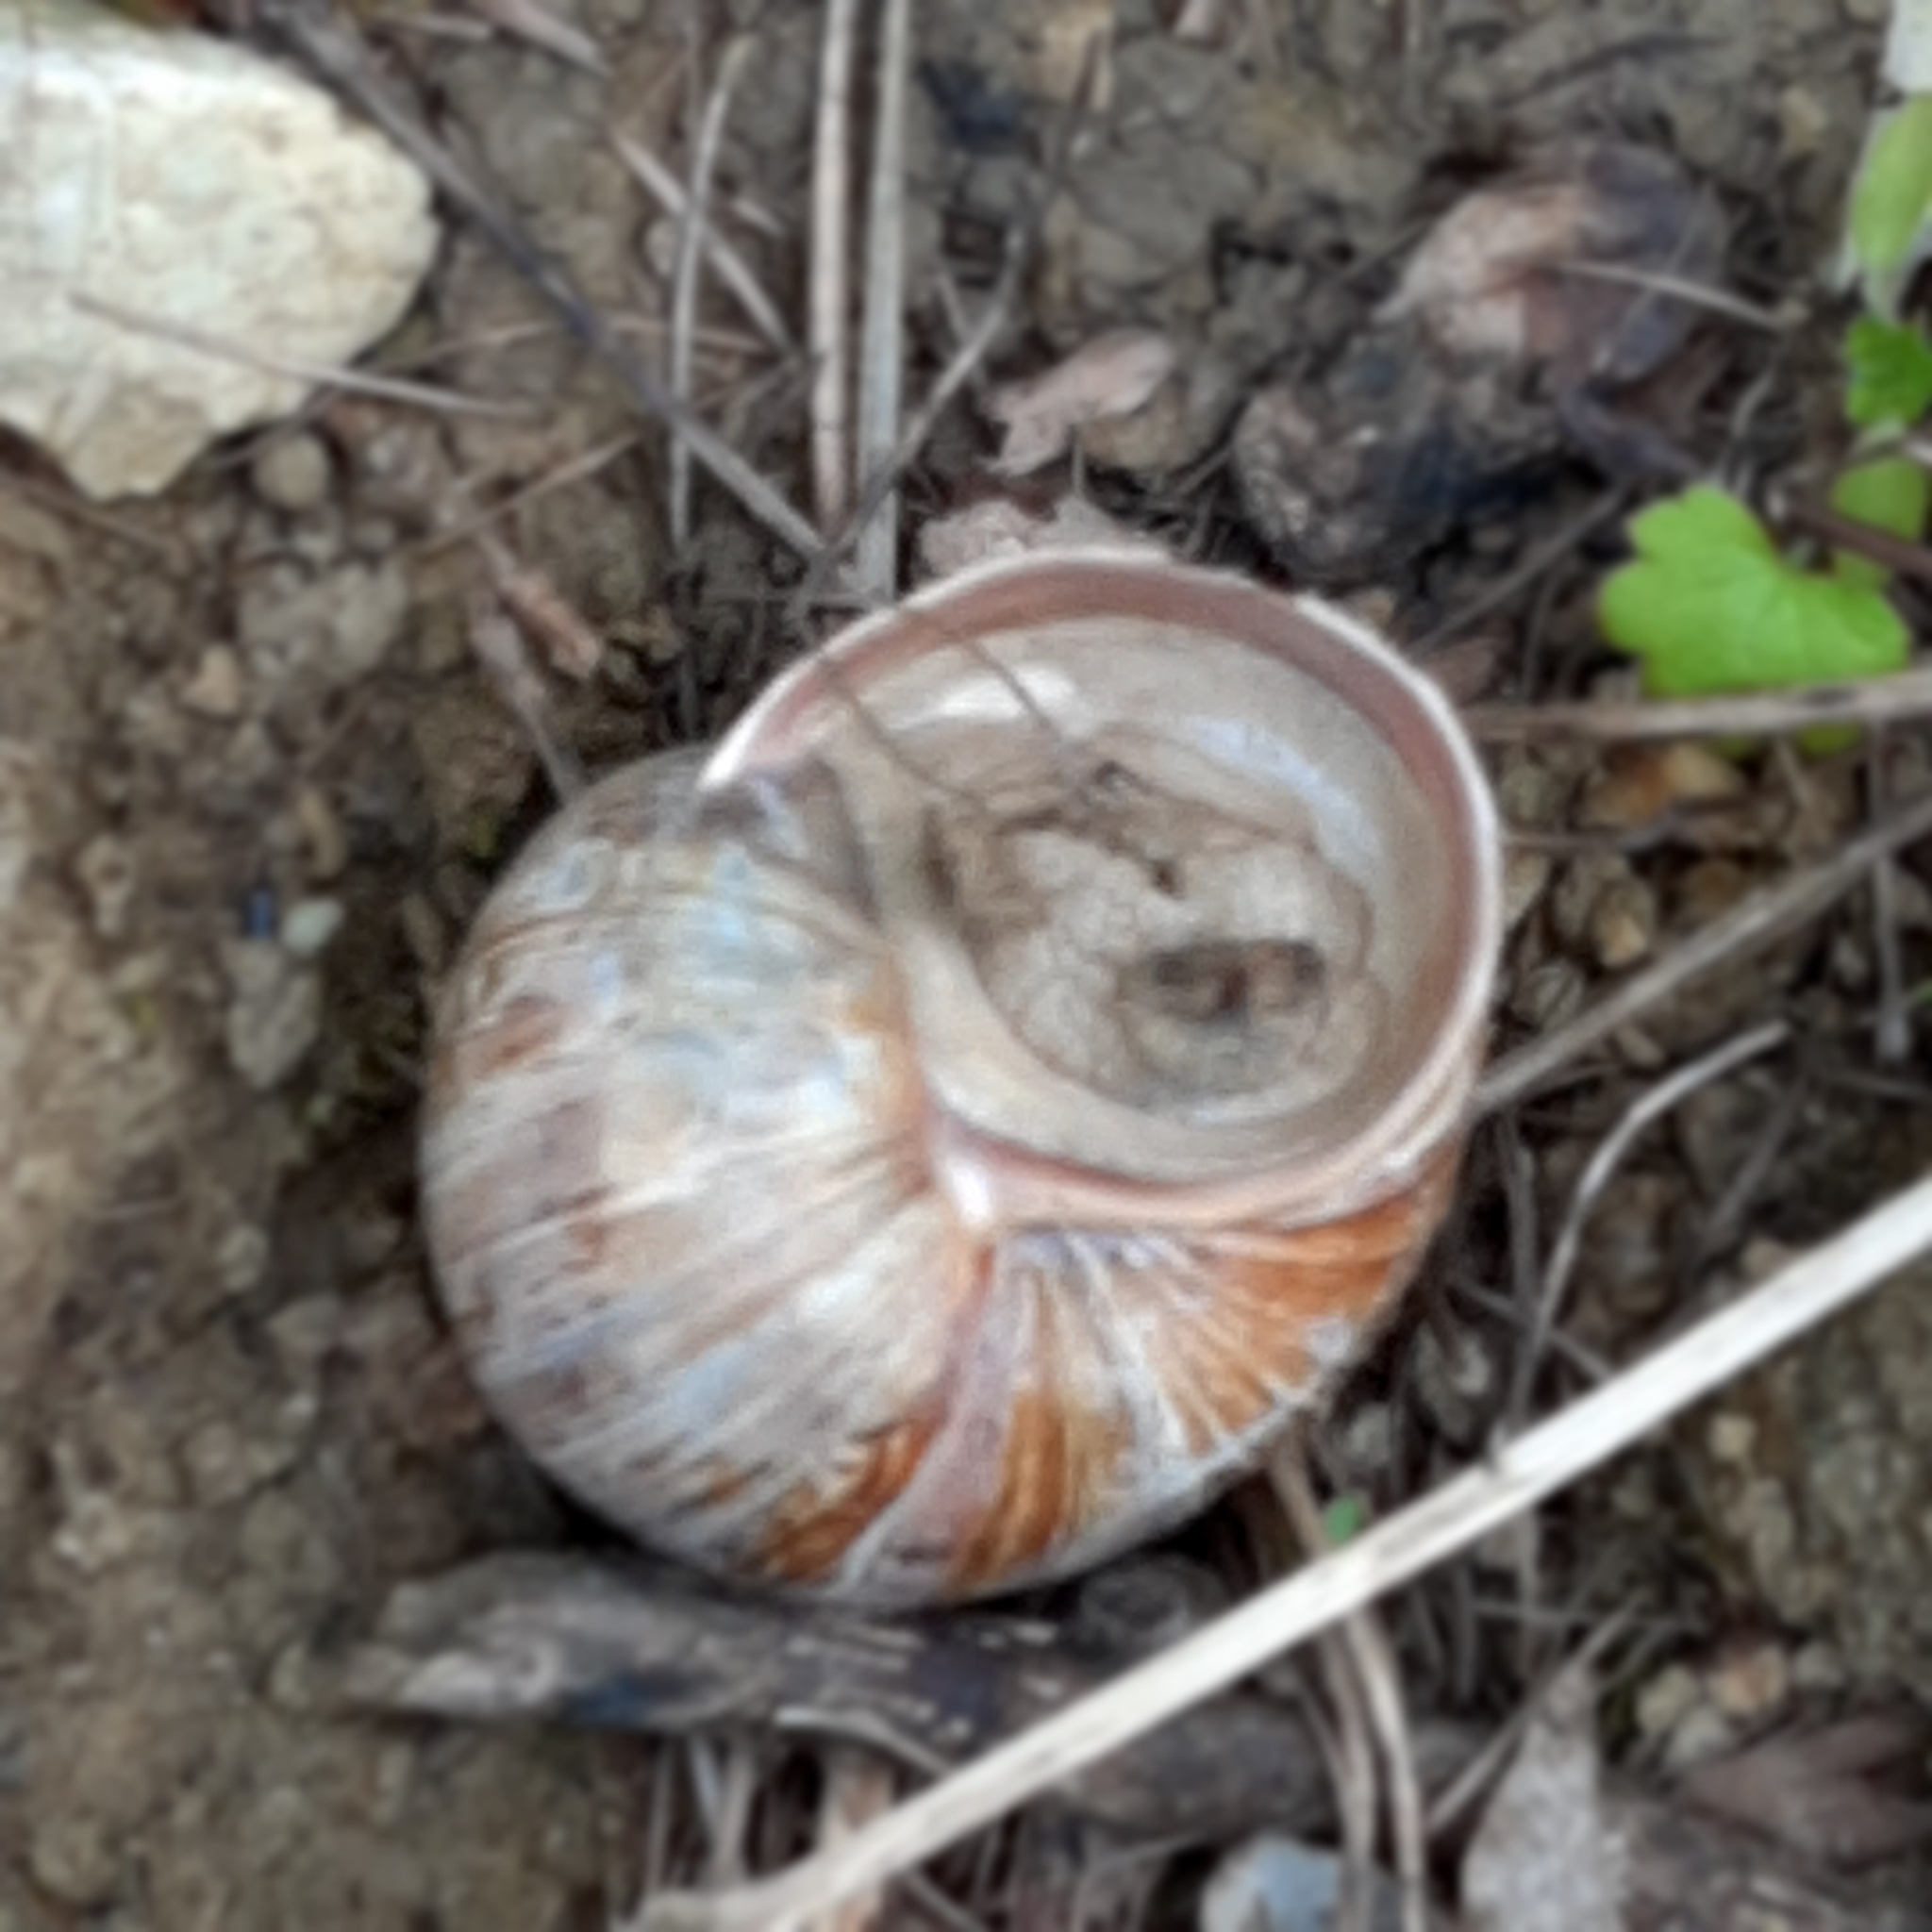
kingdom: Animalia
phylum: Mollusca
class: Gastropoda
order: Stylommatophora
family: Helicidae
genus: Helix
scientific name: Helix pomatia
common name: Roman snail
